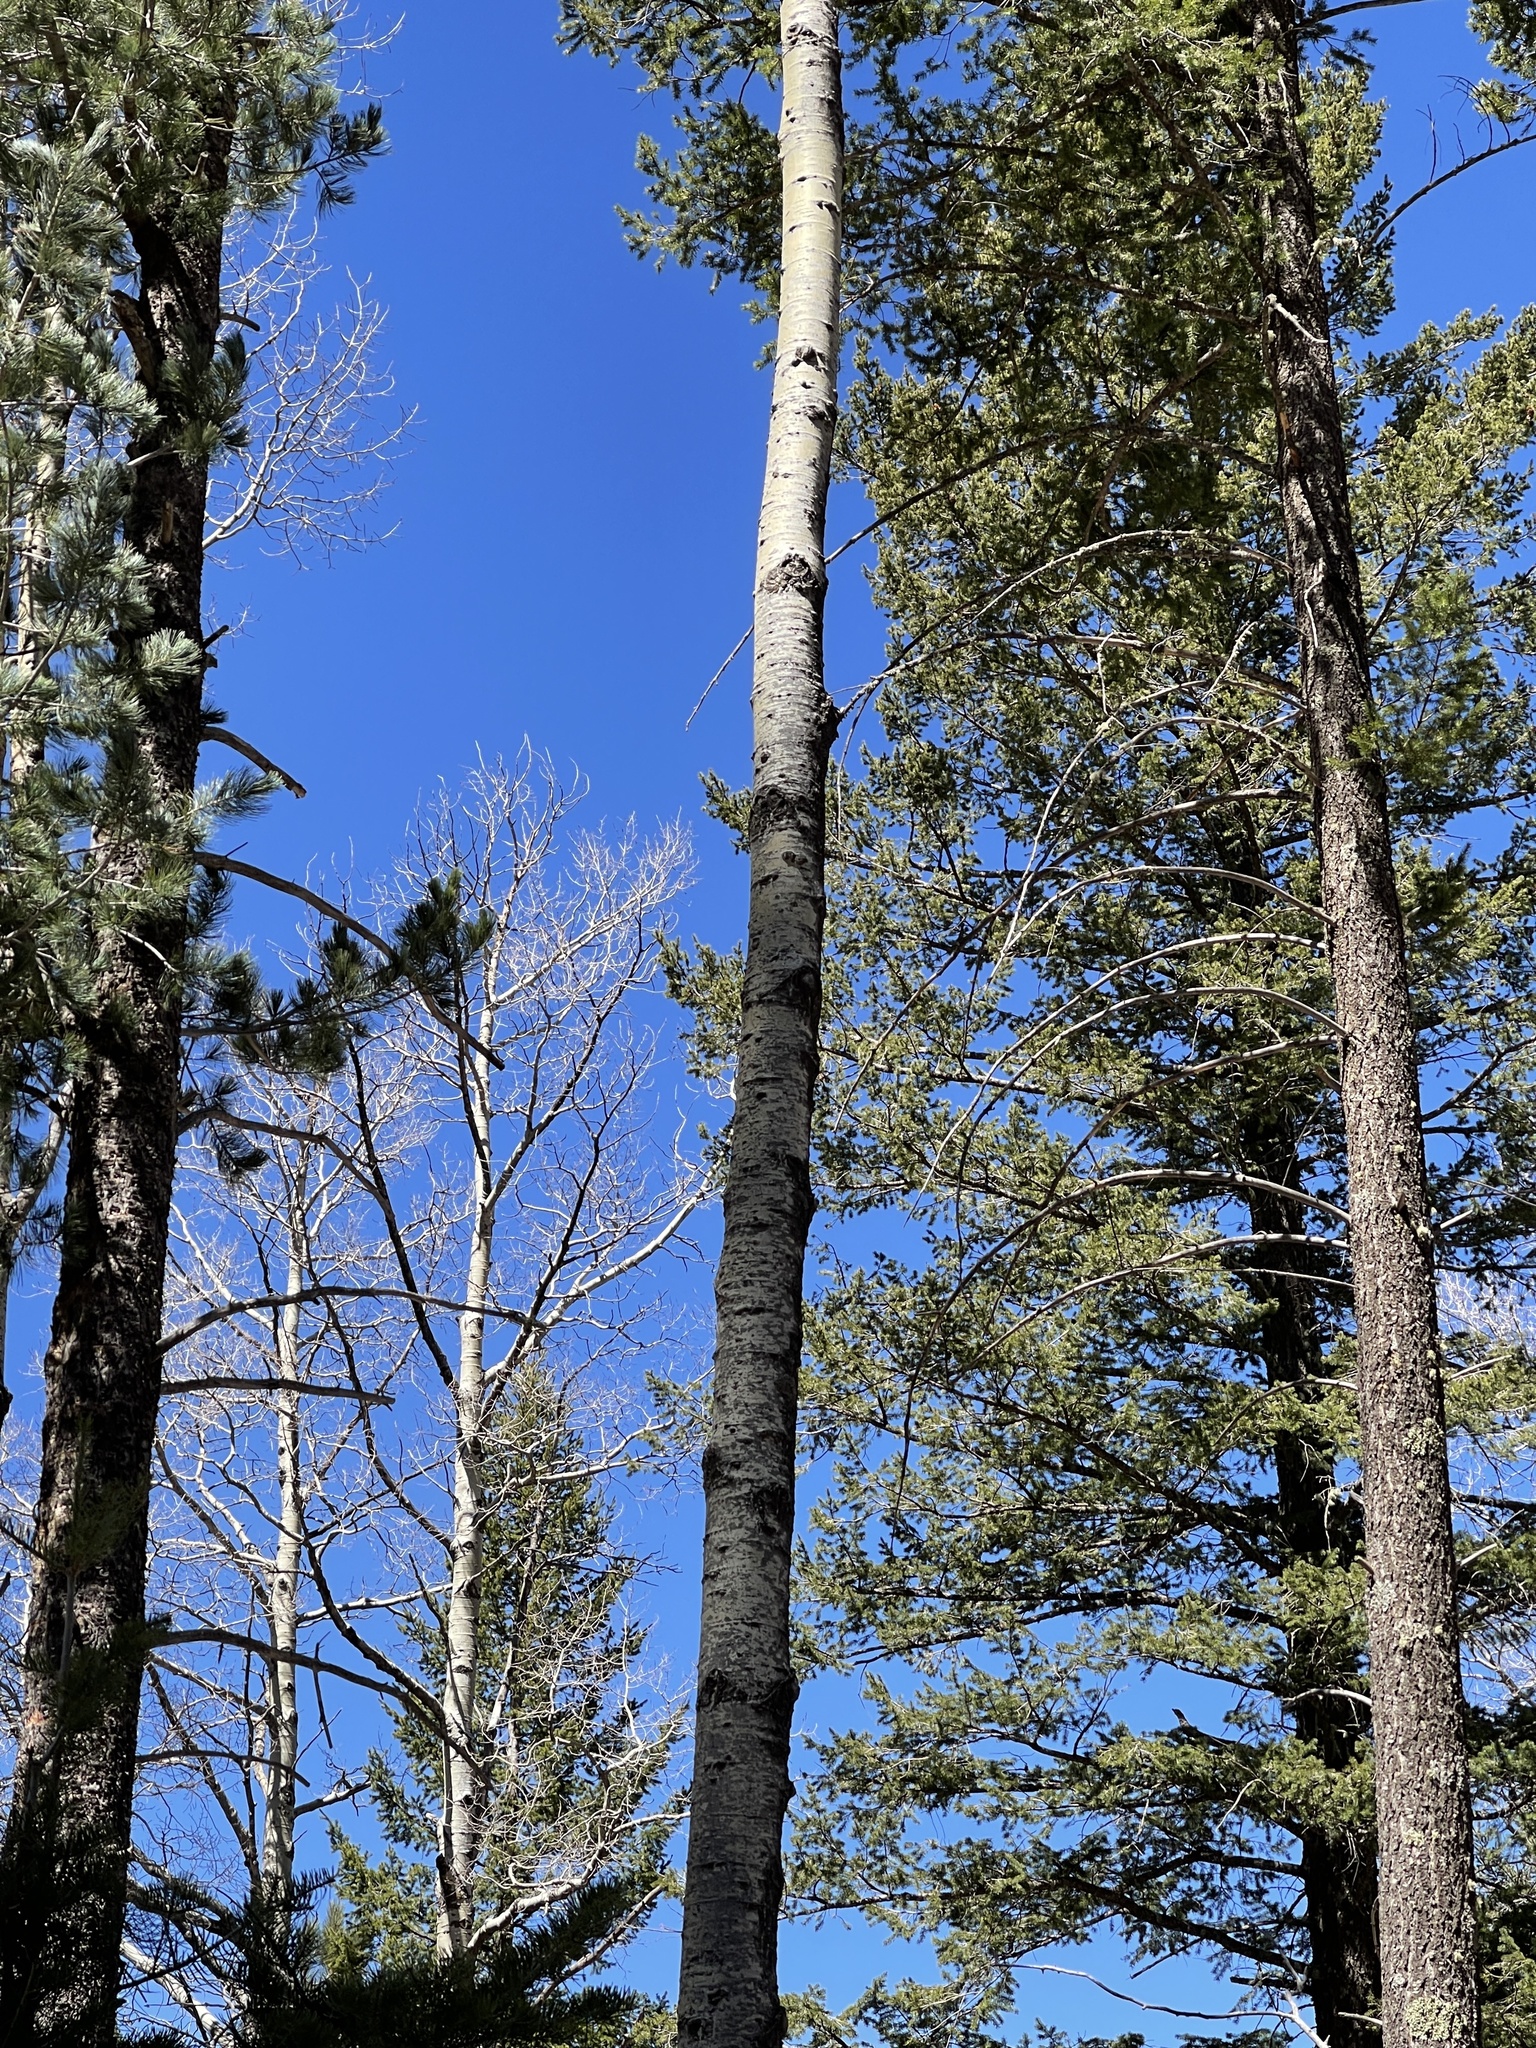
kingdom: Plantae
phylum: Tracheophyta
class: Magnoliopsida
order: Malpighiales
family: Salicaceae
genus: Populus
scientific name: Populus tremuloides
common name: Quaking aspen
